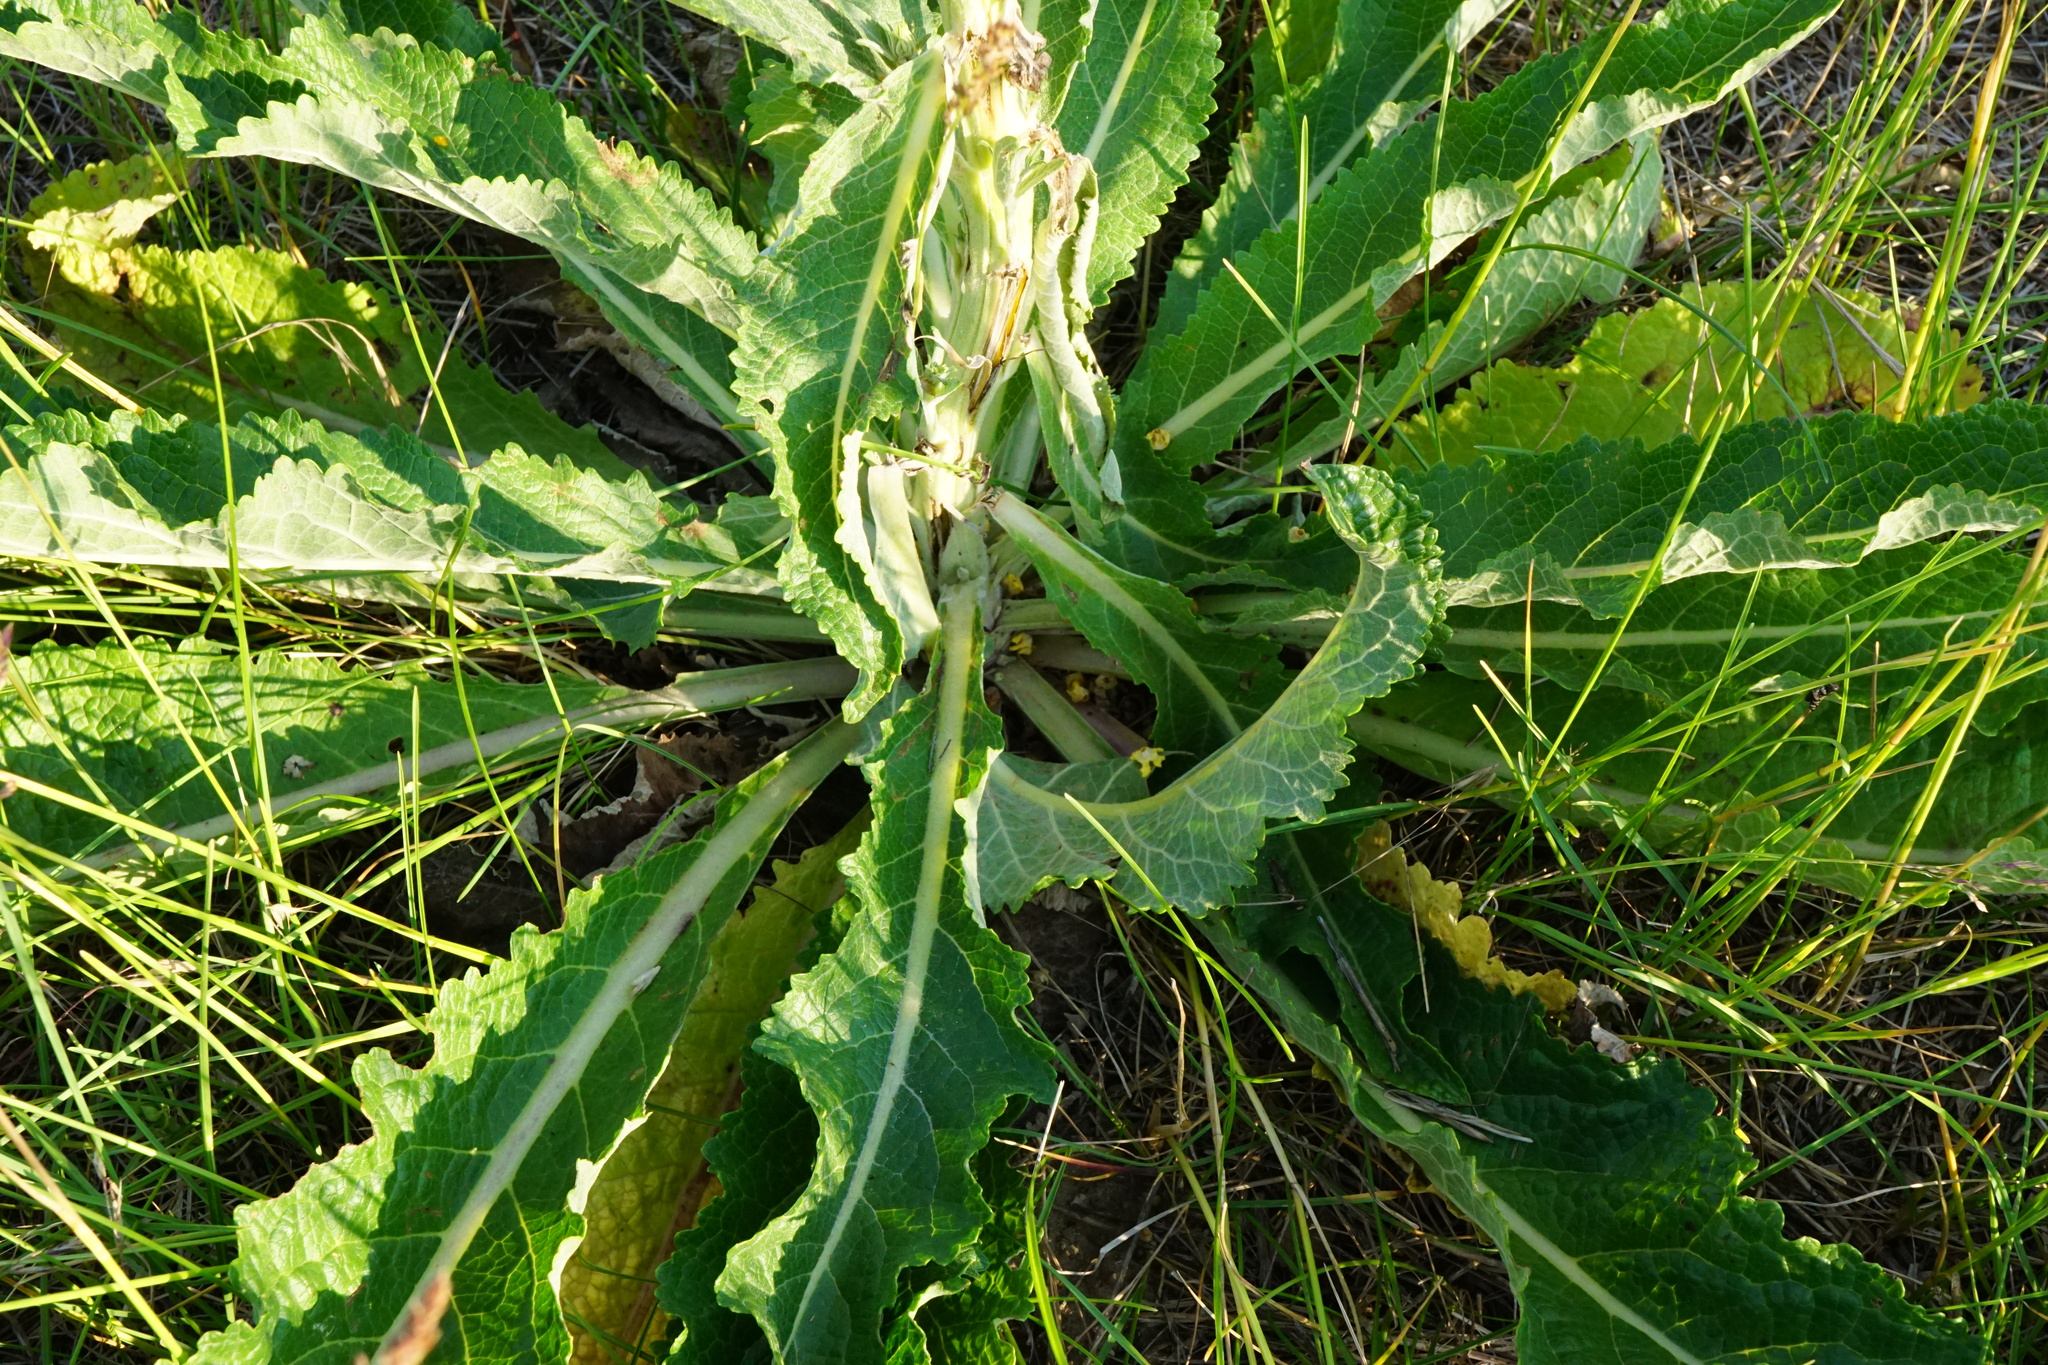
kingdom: Plantae
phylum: Tracheophyta
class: Magnoliopsida
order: Lamiales
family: Scrophulariaceae
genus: Verbascum
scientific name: Verbascum lychnitis
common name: White mullein
